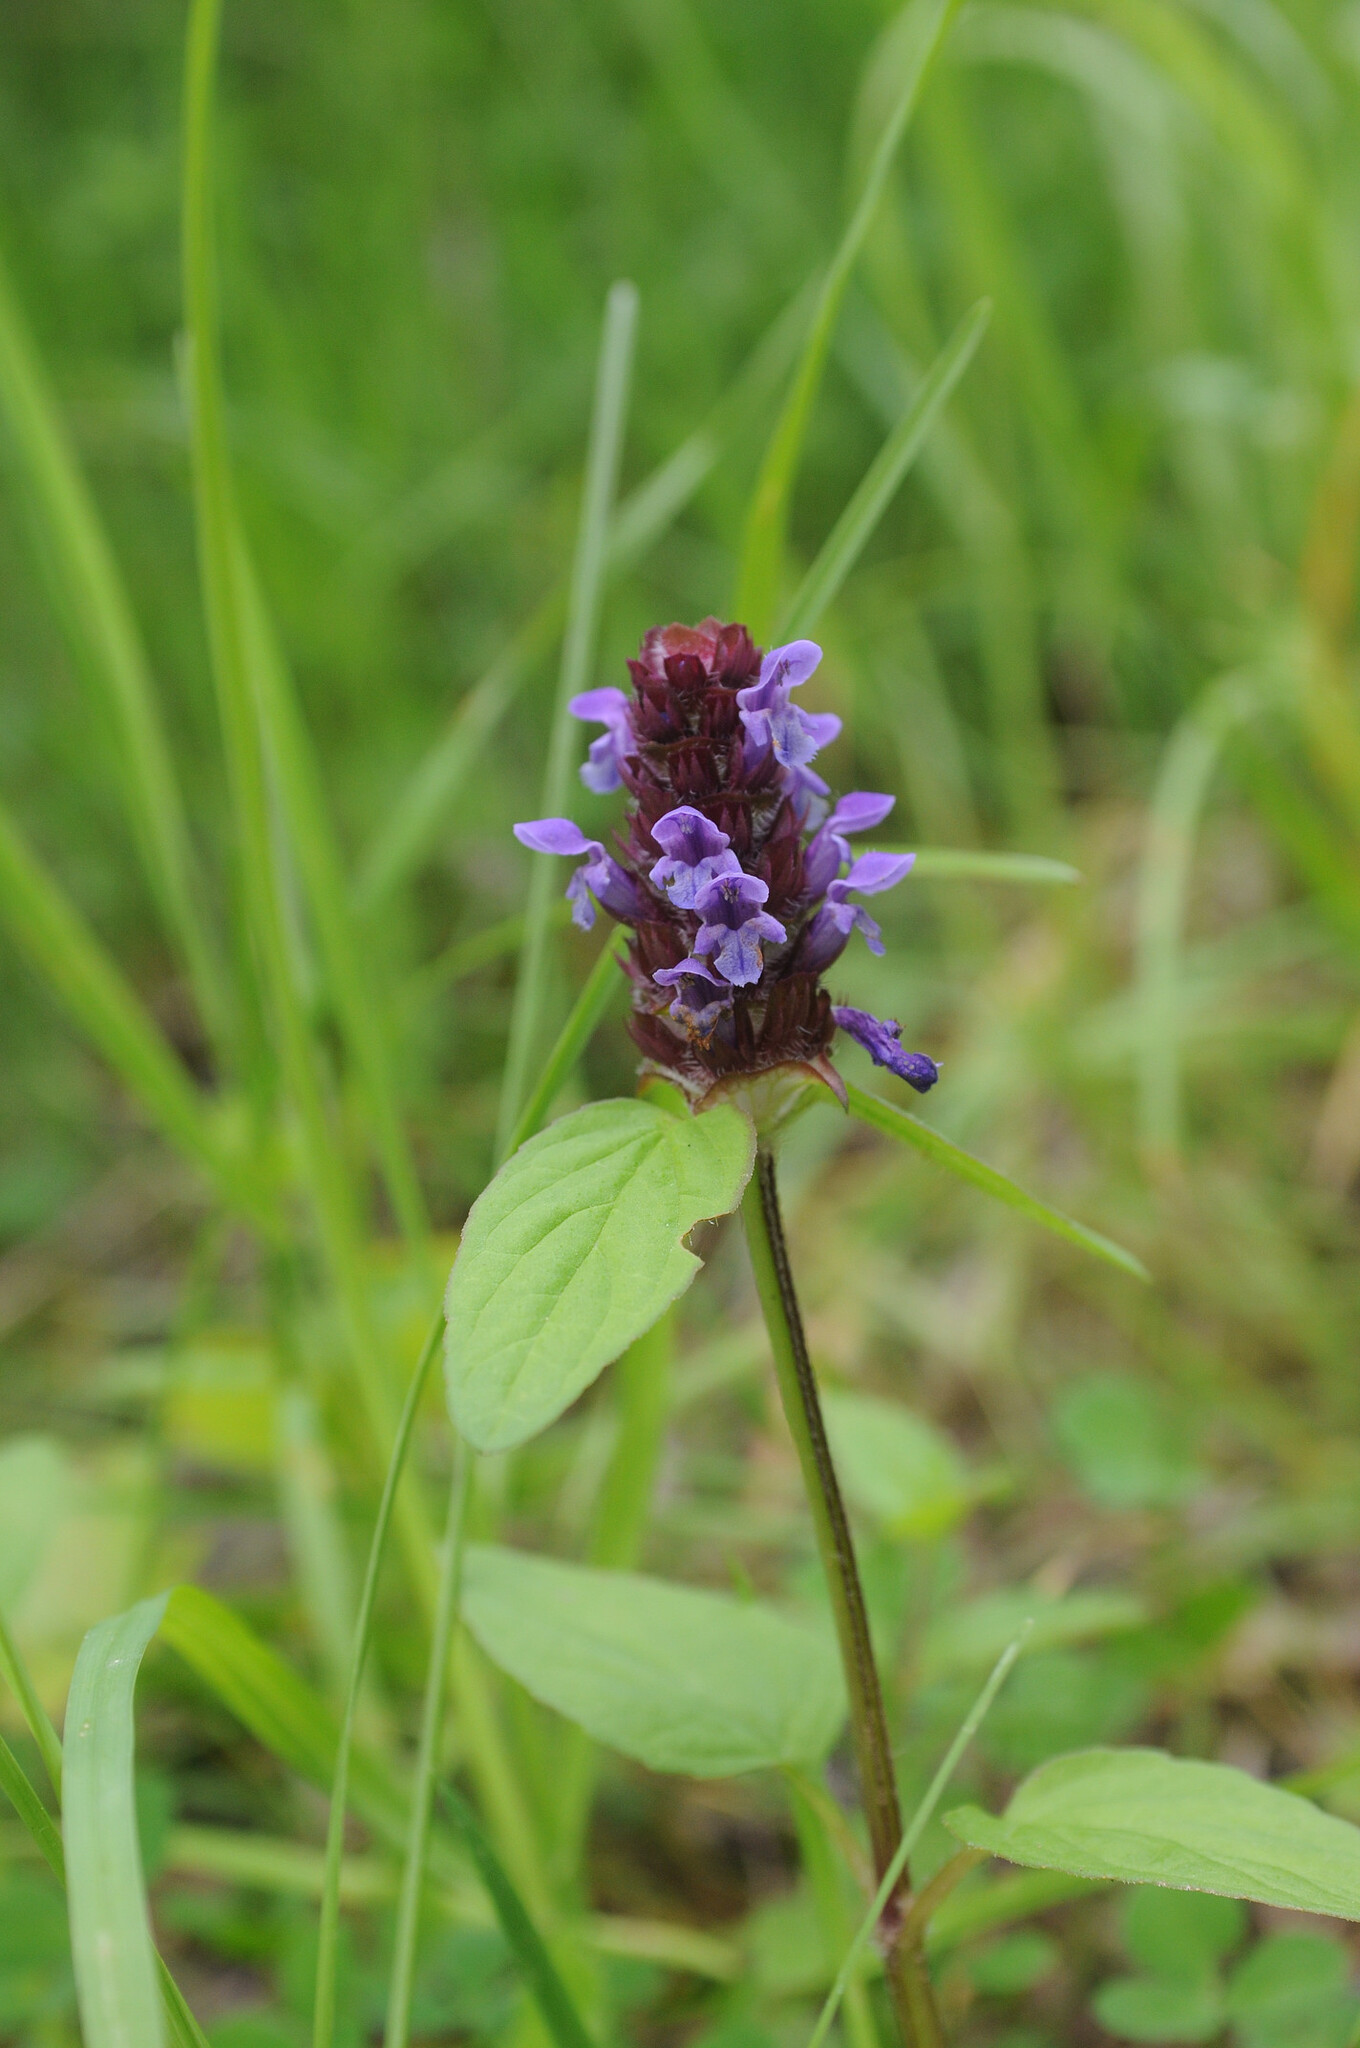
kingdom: Plantae
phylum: Tracheophyta
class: Magnoliopsida
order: Lamiales
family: Lamiaceae
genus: Prunella
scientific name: Prunella vulgaris
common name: Heal-all
